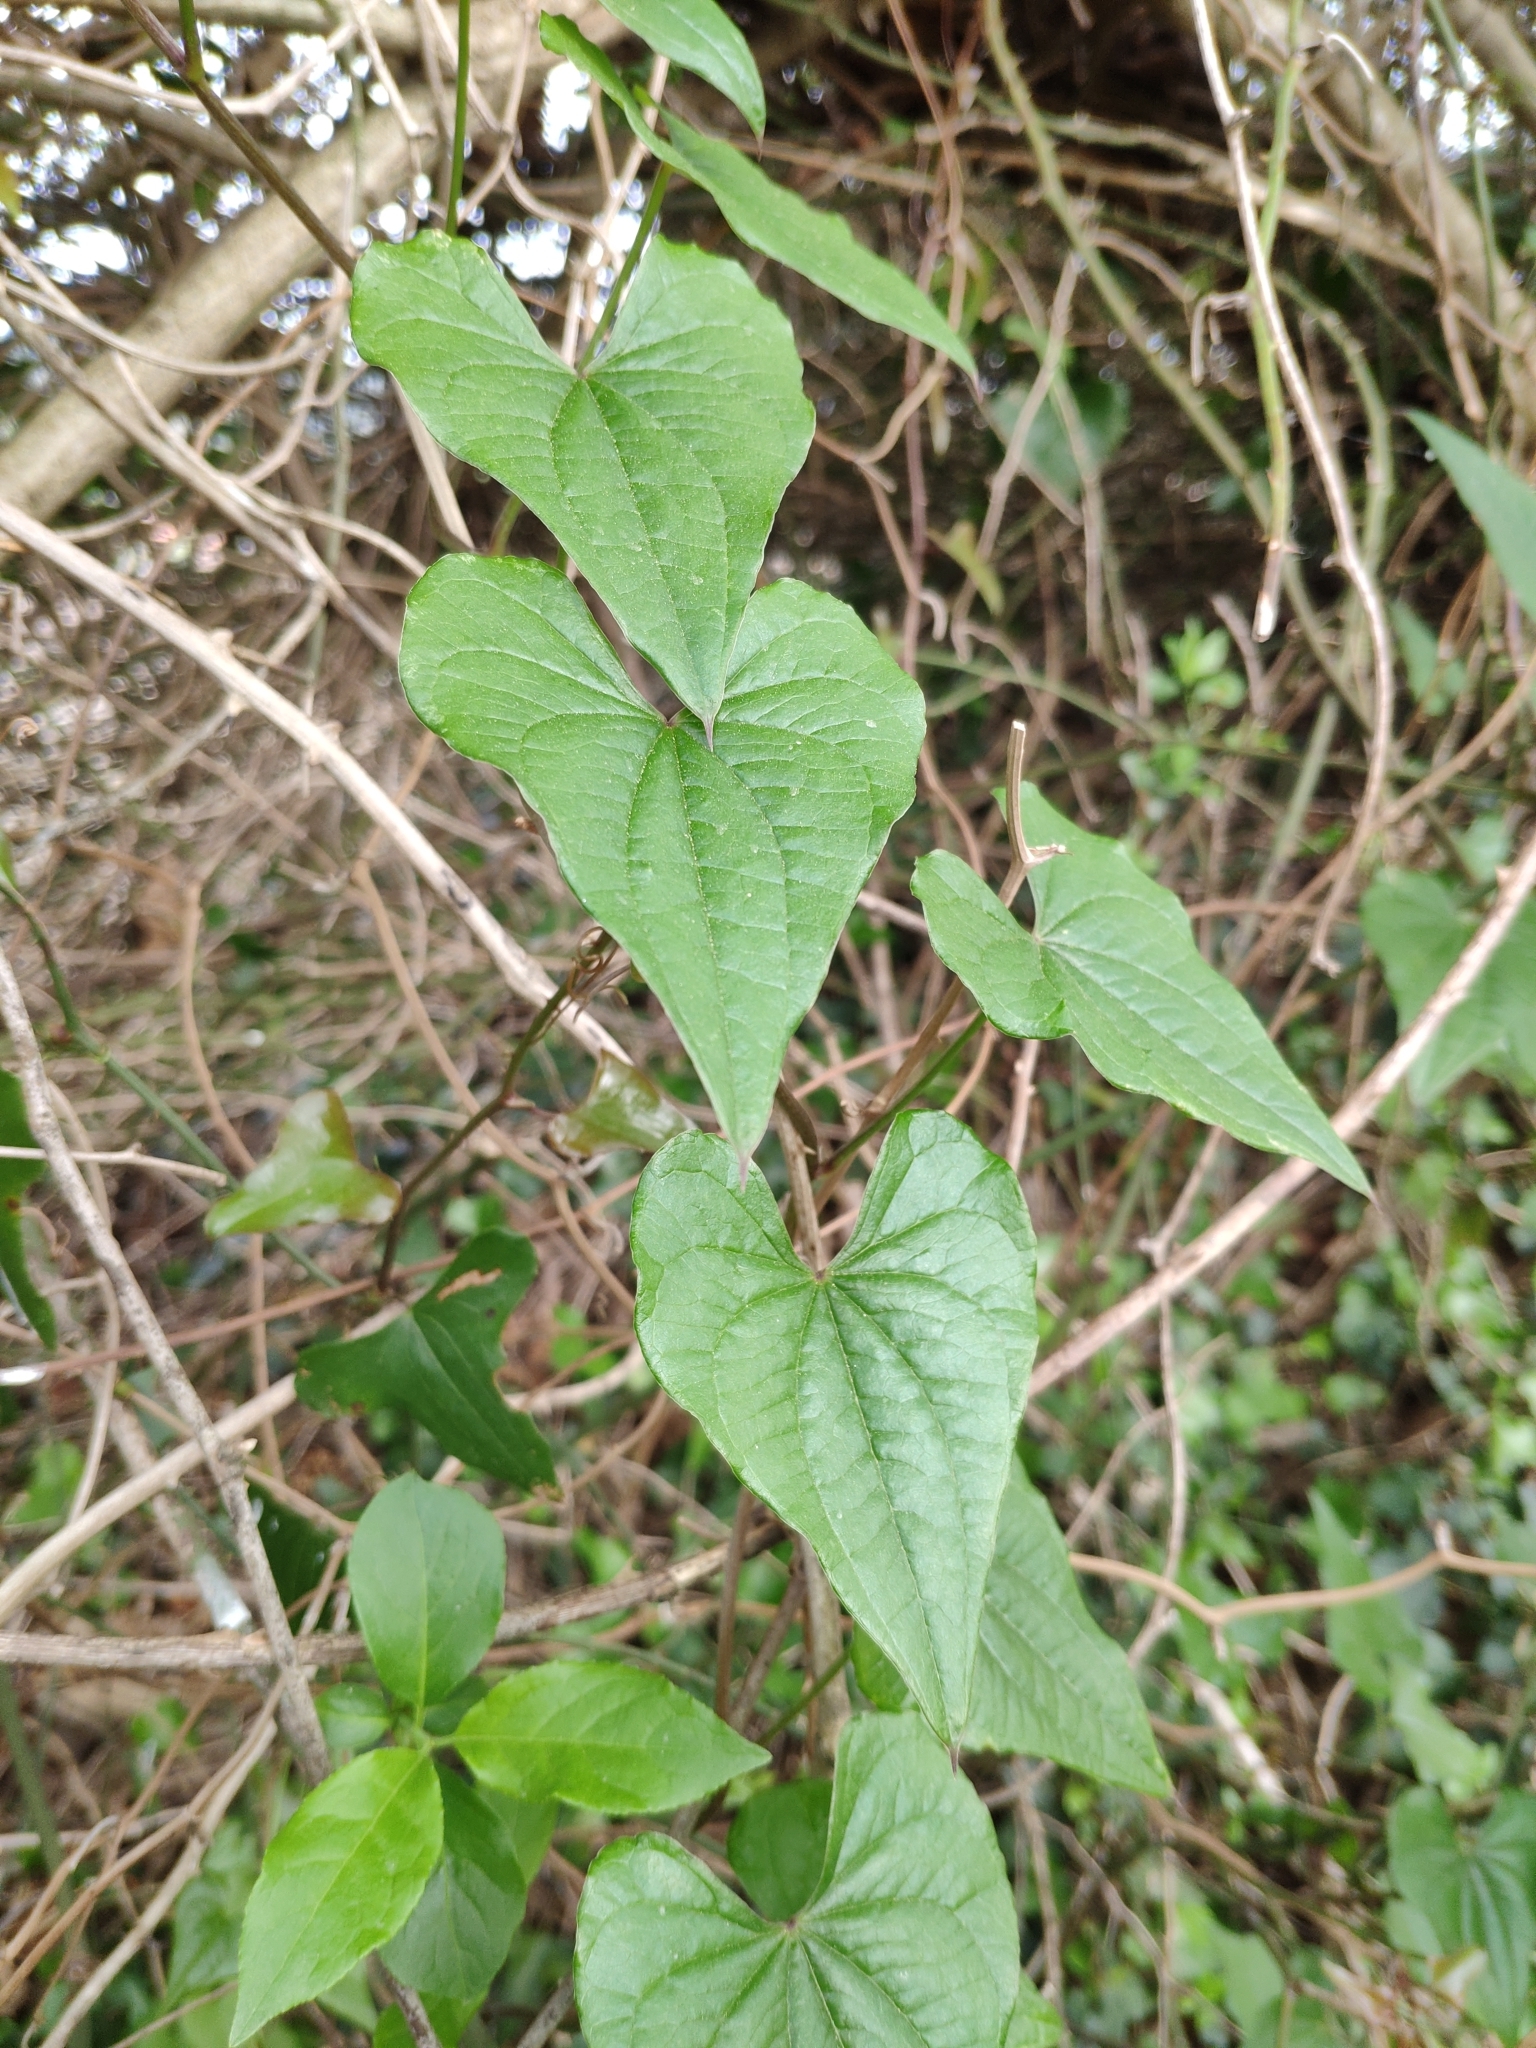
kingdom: Plantae
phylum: Tracheophyta
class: Liliopsida
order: Dioscoreales
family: Dioscoreaceae
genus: Dioscorea
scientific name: Dioscorea communis
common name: Black-bindweed
